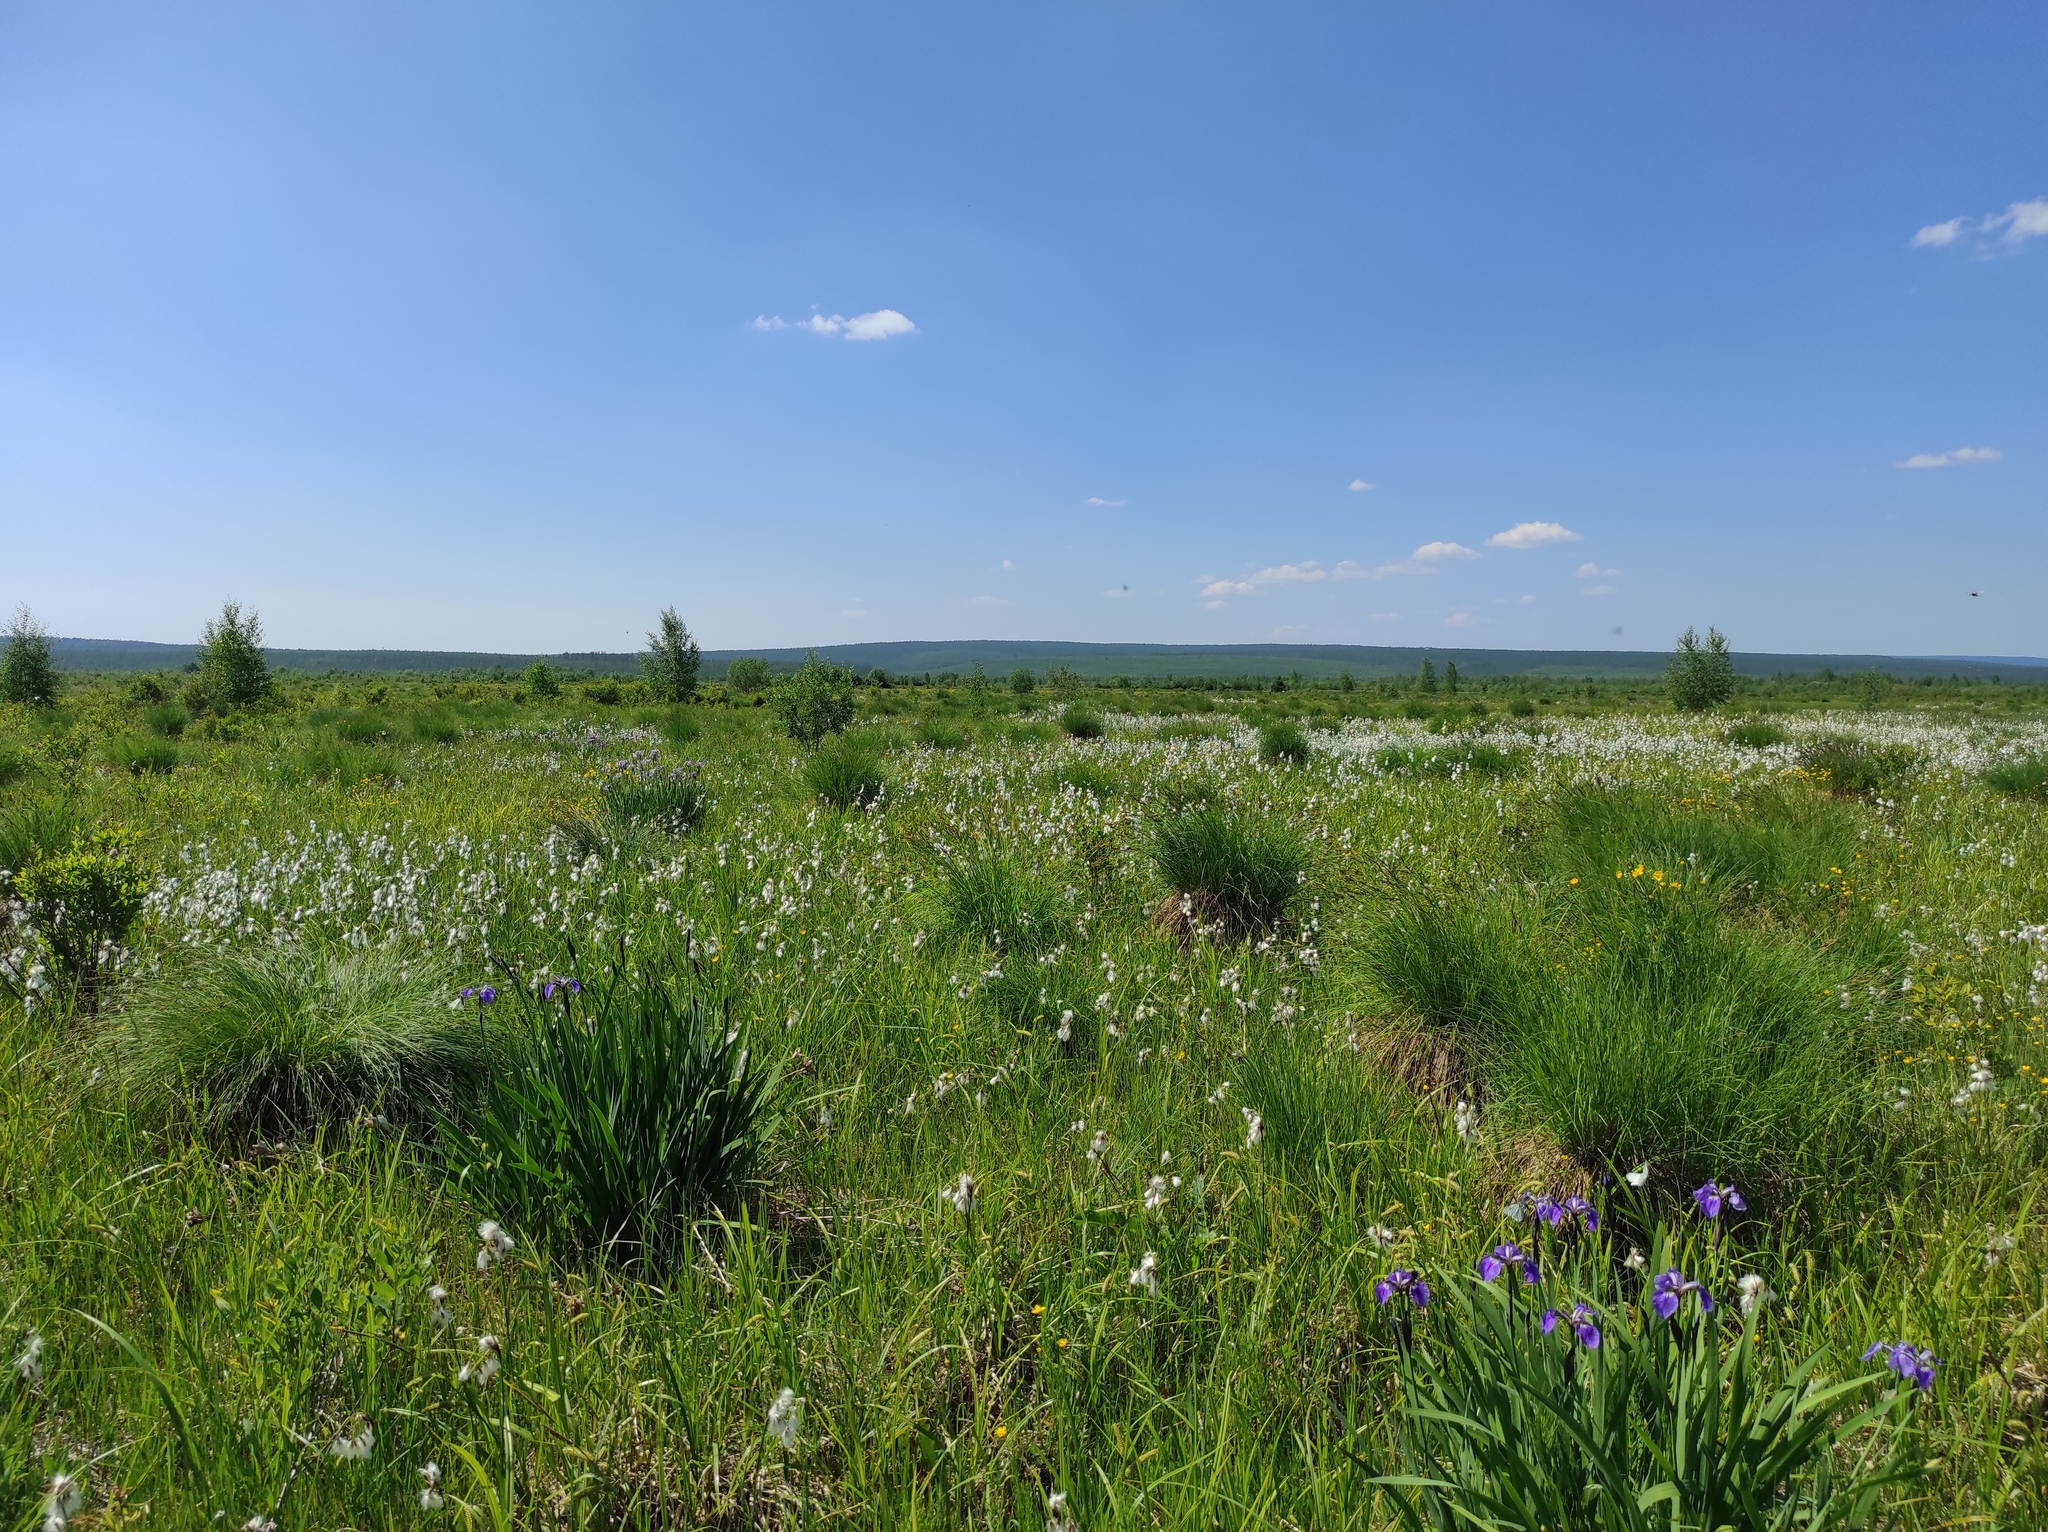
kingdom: Plantae
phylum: Tracheophyta
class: Liliopsida
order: Asparagales
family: Iridaceae
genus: Iris
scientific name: Iris setosa
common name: Arctic blue flag
